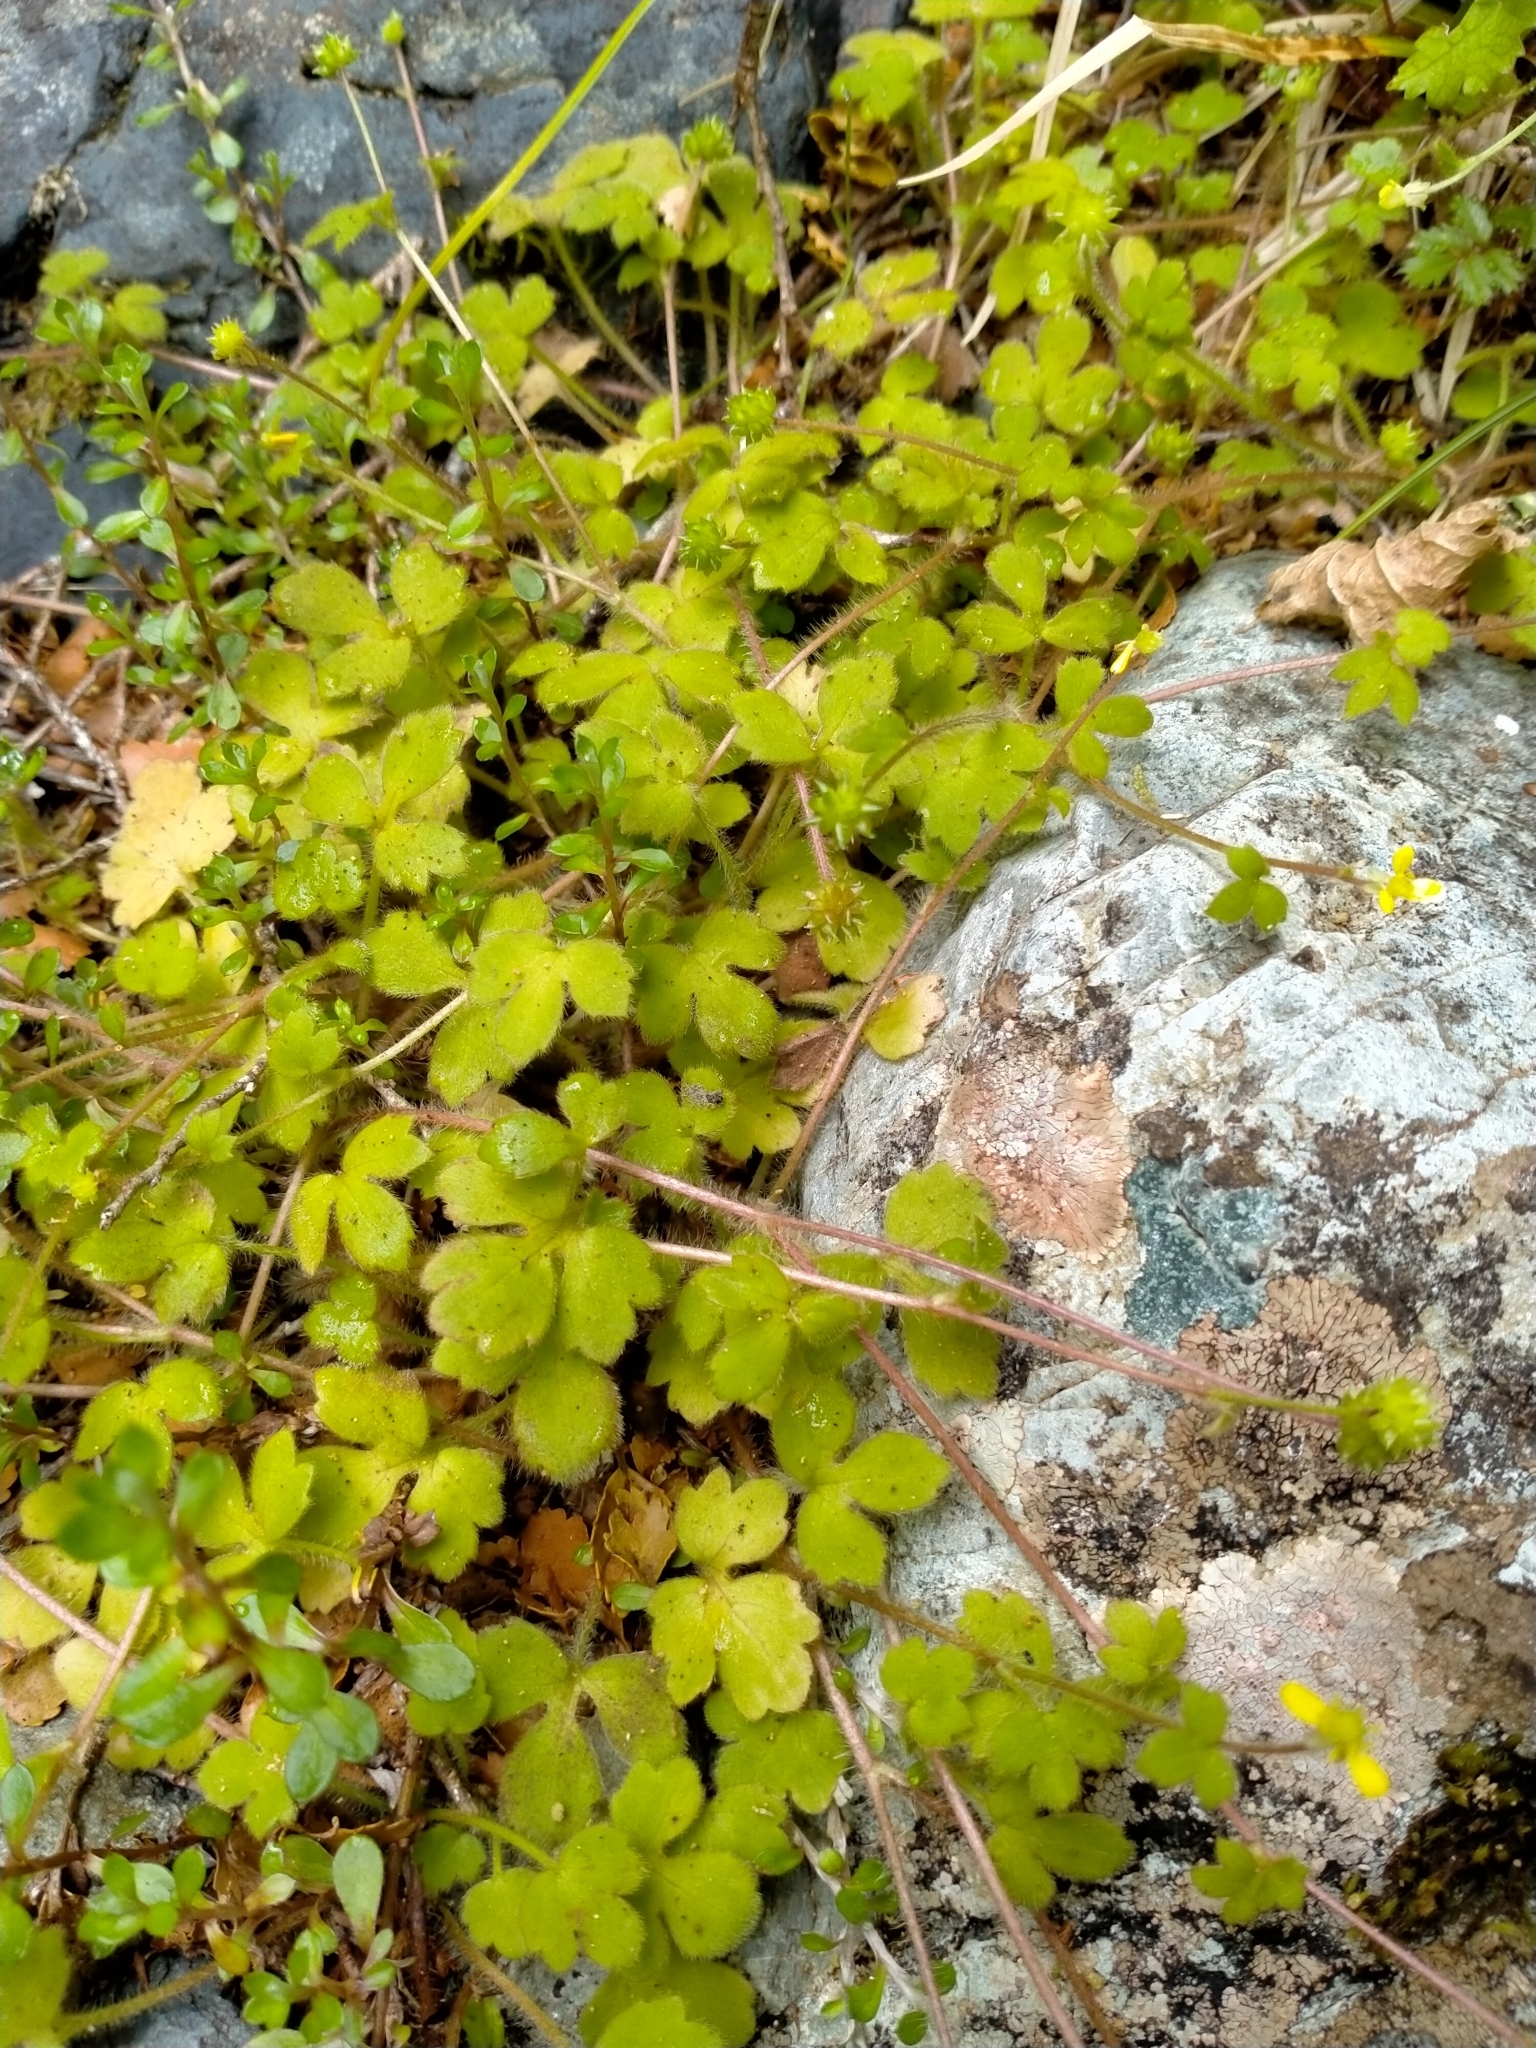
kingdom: Plantae
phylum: Tracheophyta
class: Magnoliopsida
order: Ranunculales
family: Ranunculaceae
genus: Ranunculus
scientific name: Ranunculus membranifolius
